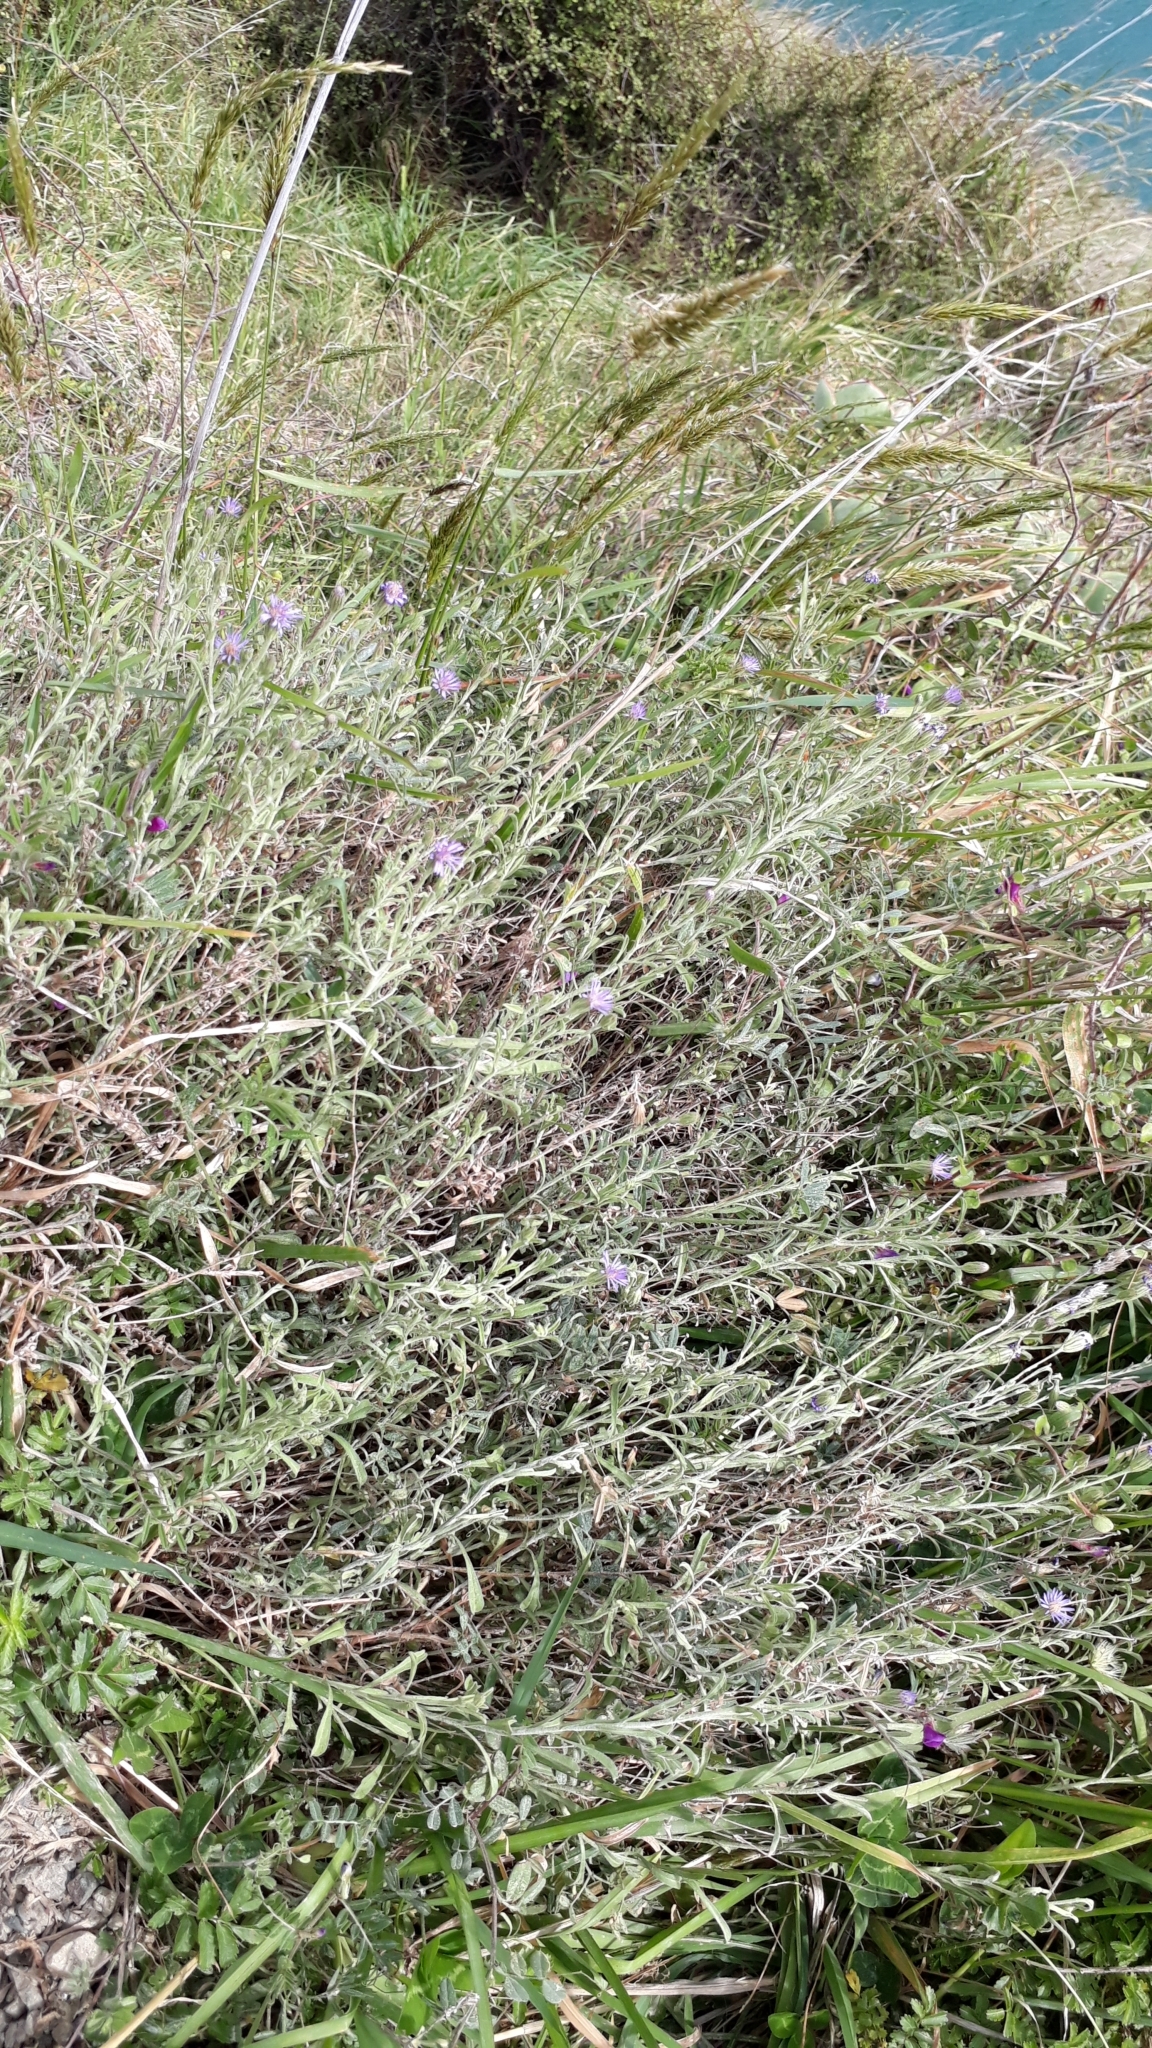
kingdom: Plantae
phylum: Tracheophyta
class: Magnoliopsida
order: Asterales
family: Asteraceae
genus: Vittadinia
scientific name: Vittadinia australis
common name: White fuzzweed
